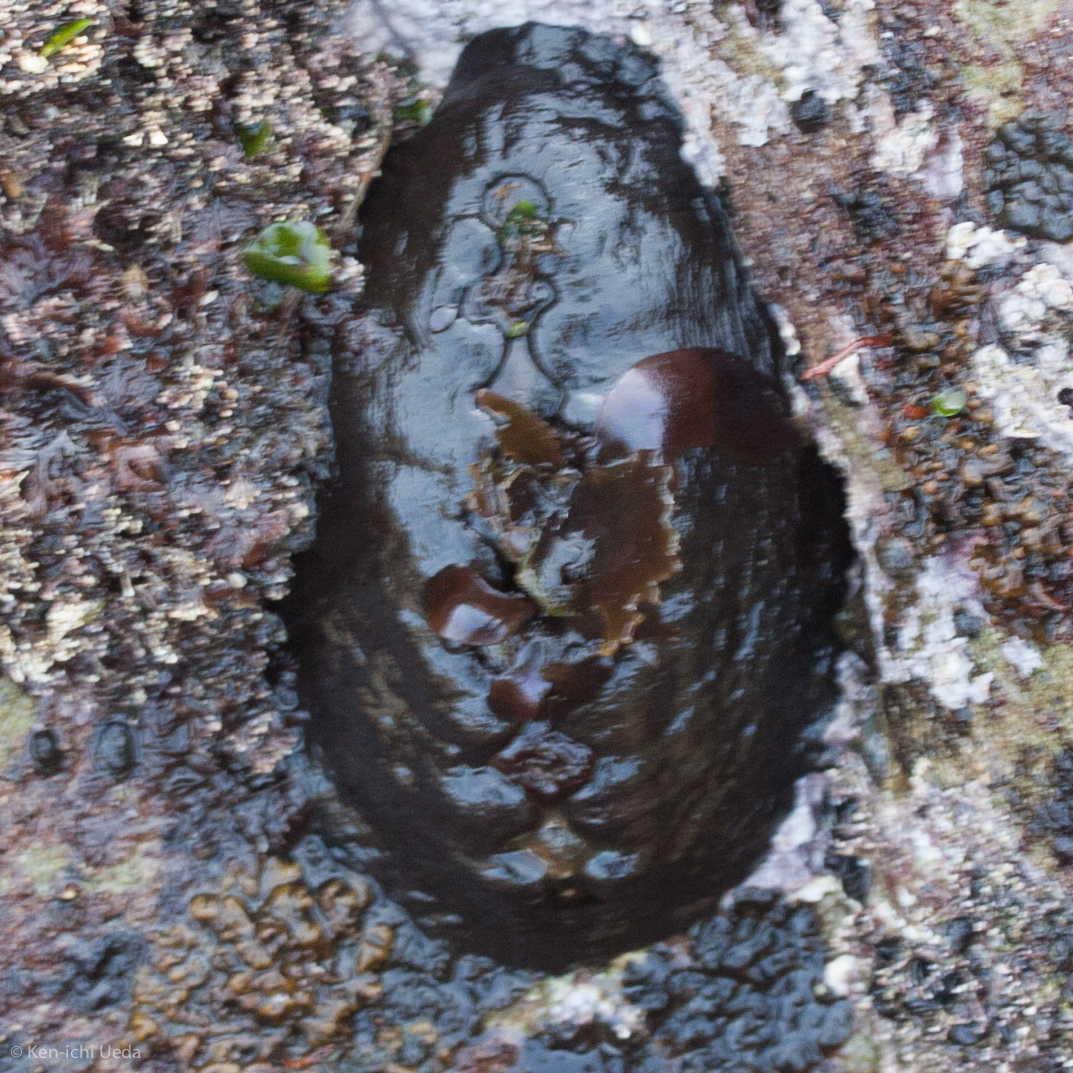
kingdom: Animalia
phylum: Mollusca
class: Polyplacophora
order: Chitonida
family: Mopaliidae
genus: Katharina
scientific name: Katharina tunicata
